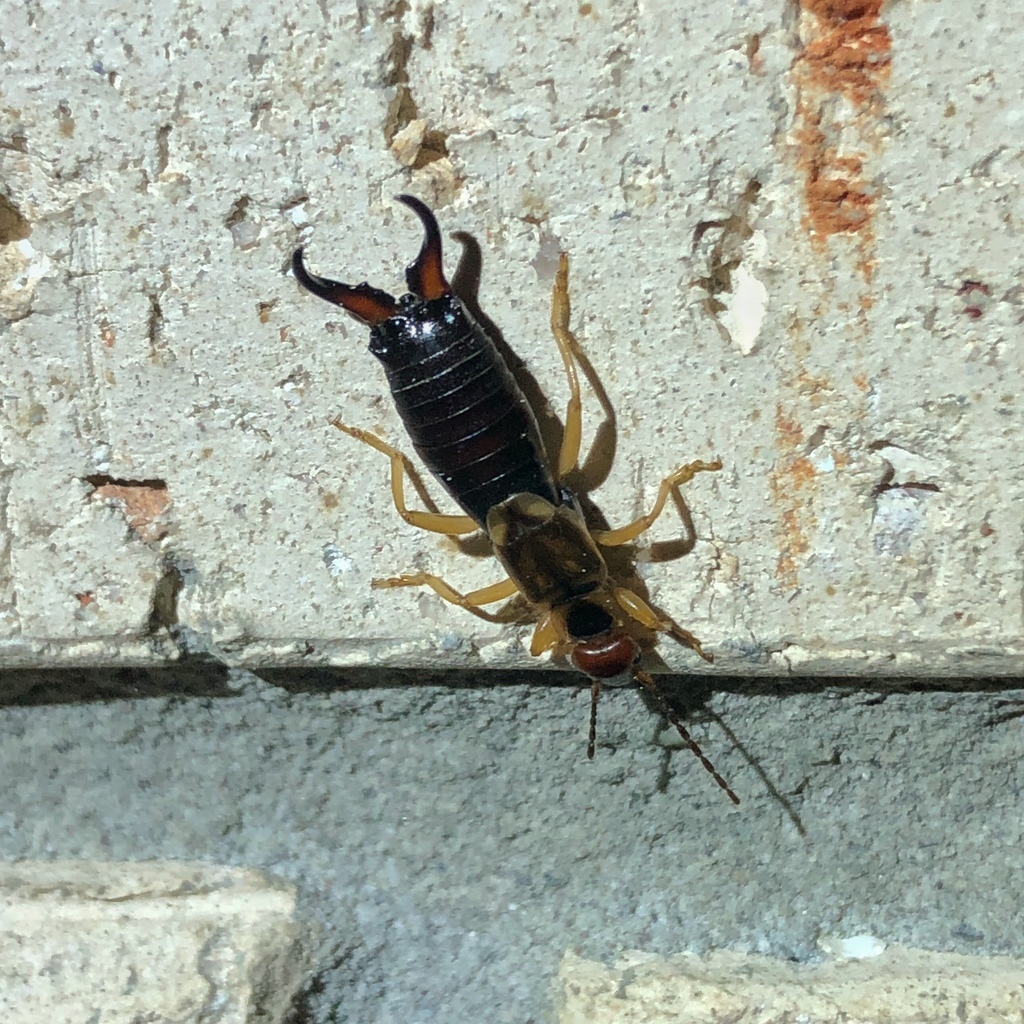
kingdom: Animalia
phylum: Arthropoda
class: Insecta
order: Dermaptera
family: Forficulidae
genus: Forficula
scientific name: Forficula
